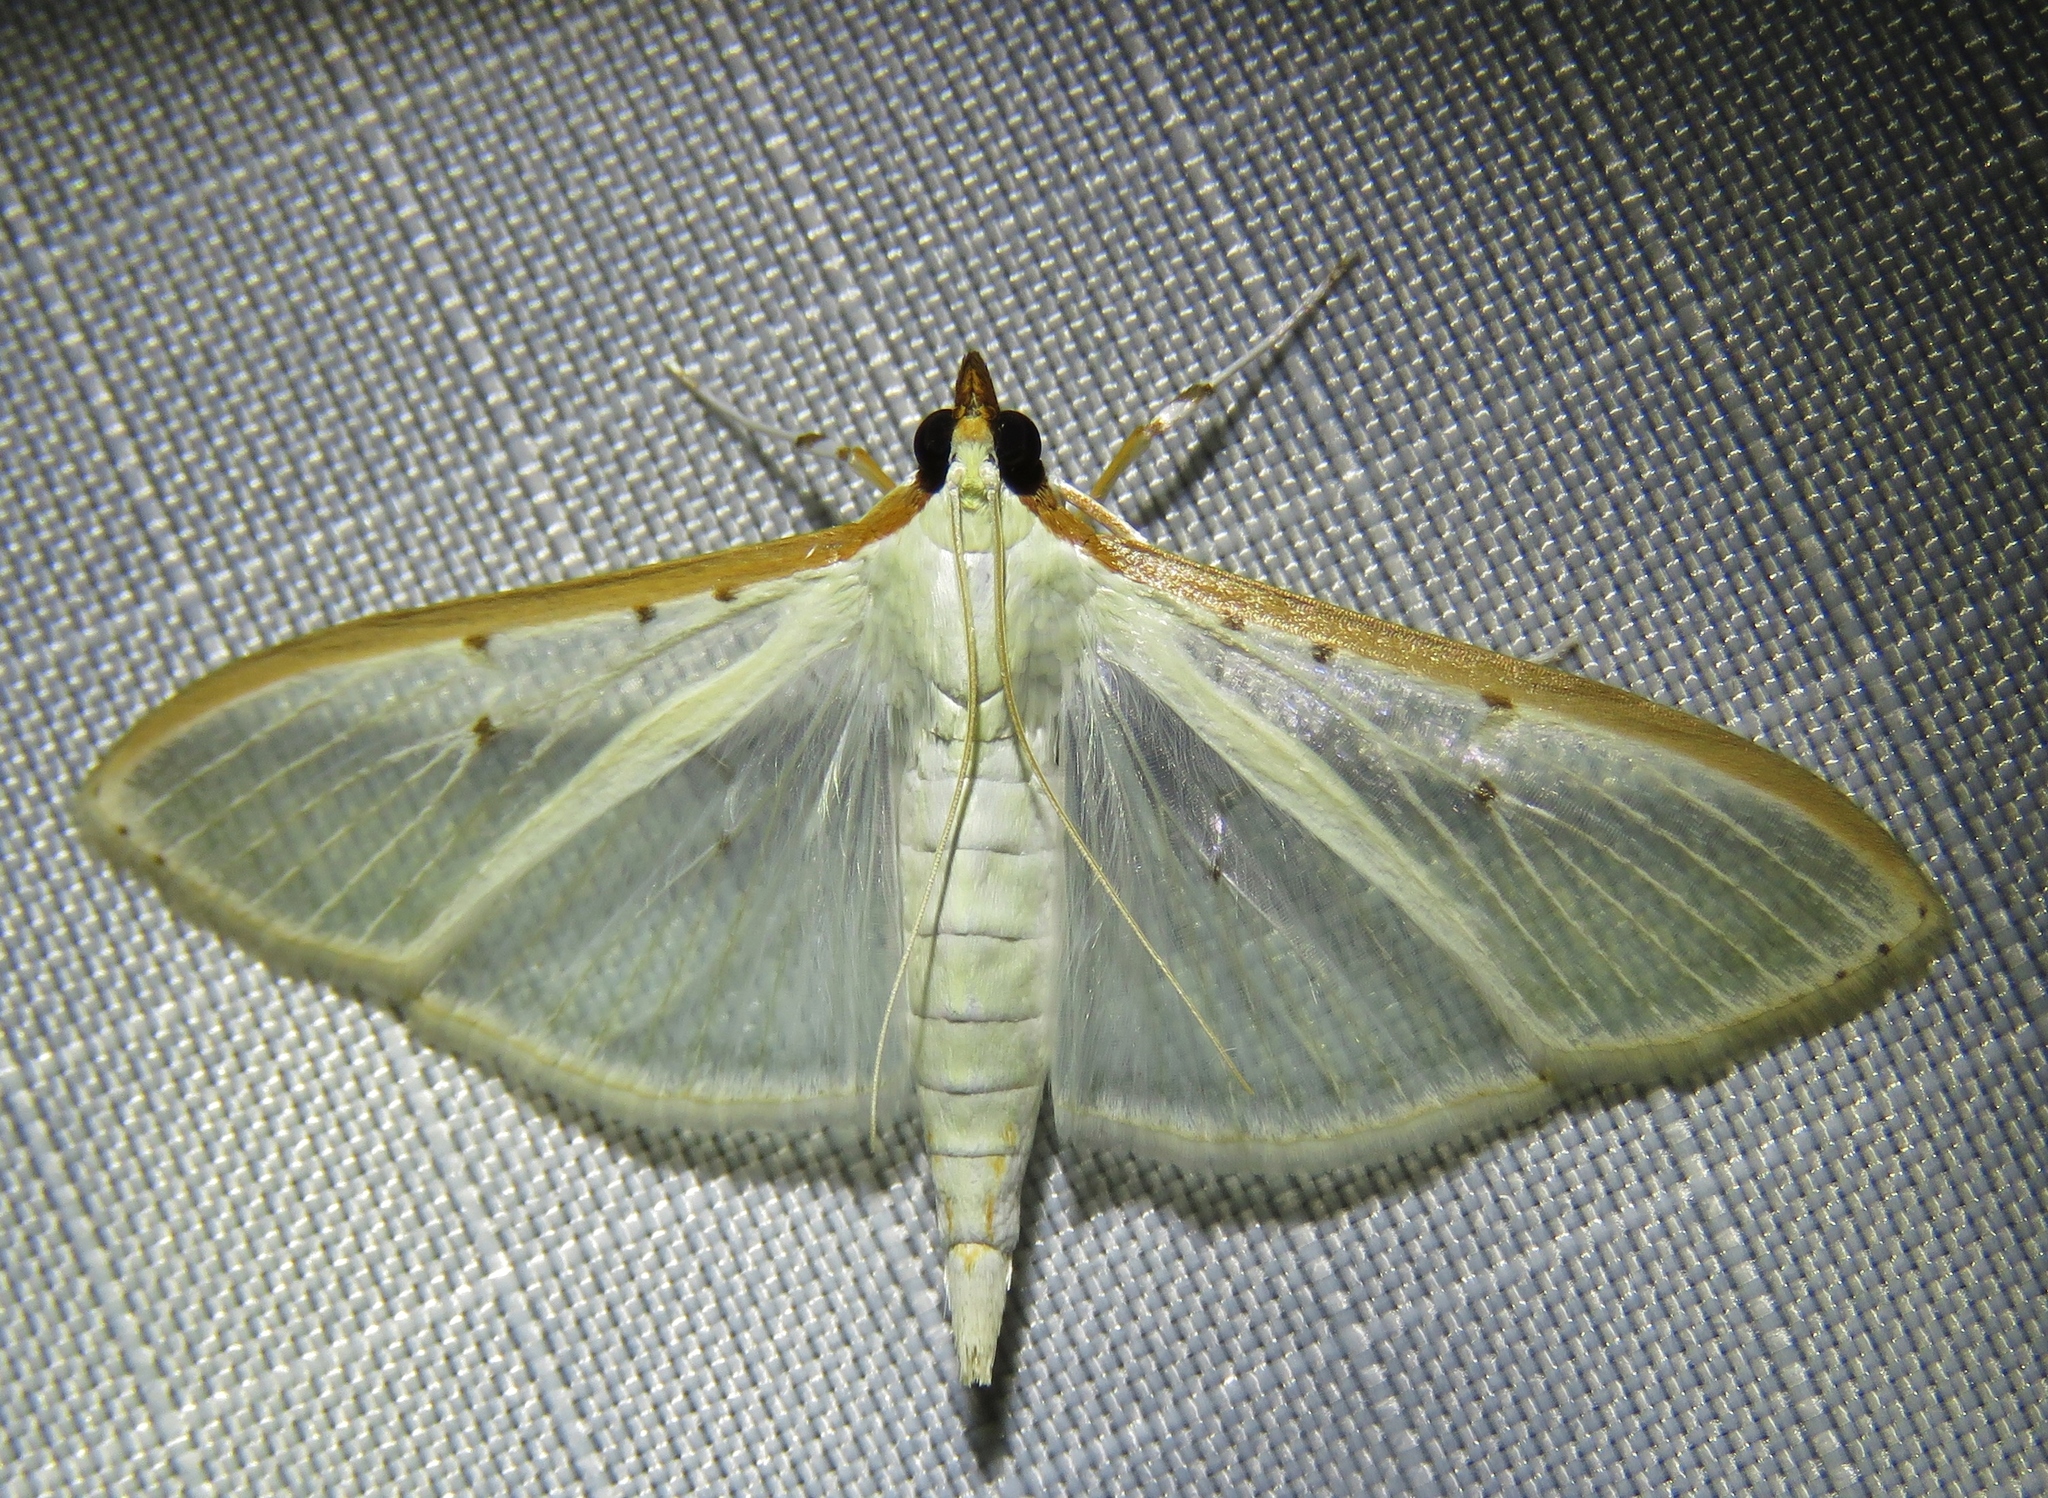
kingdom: Animalia
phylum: Arthropoda
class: Insecta
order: Lepidoptera
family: Crambidae
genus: Palpita
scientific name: Palpita quadristigmalis
